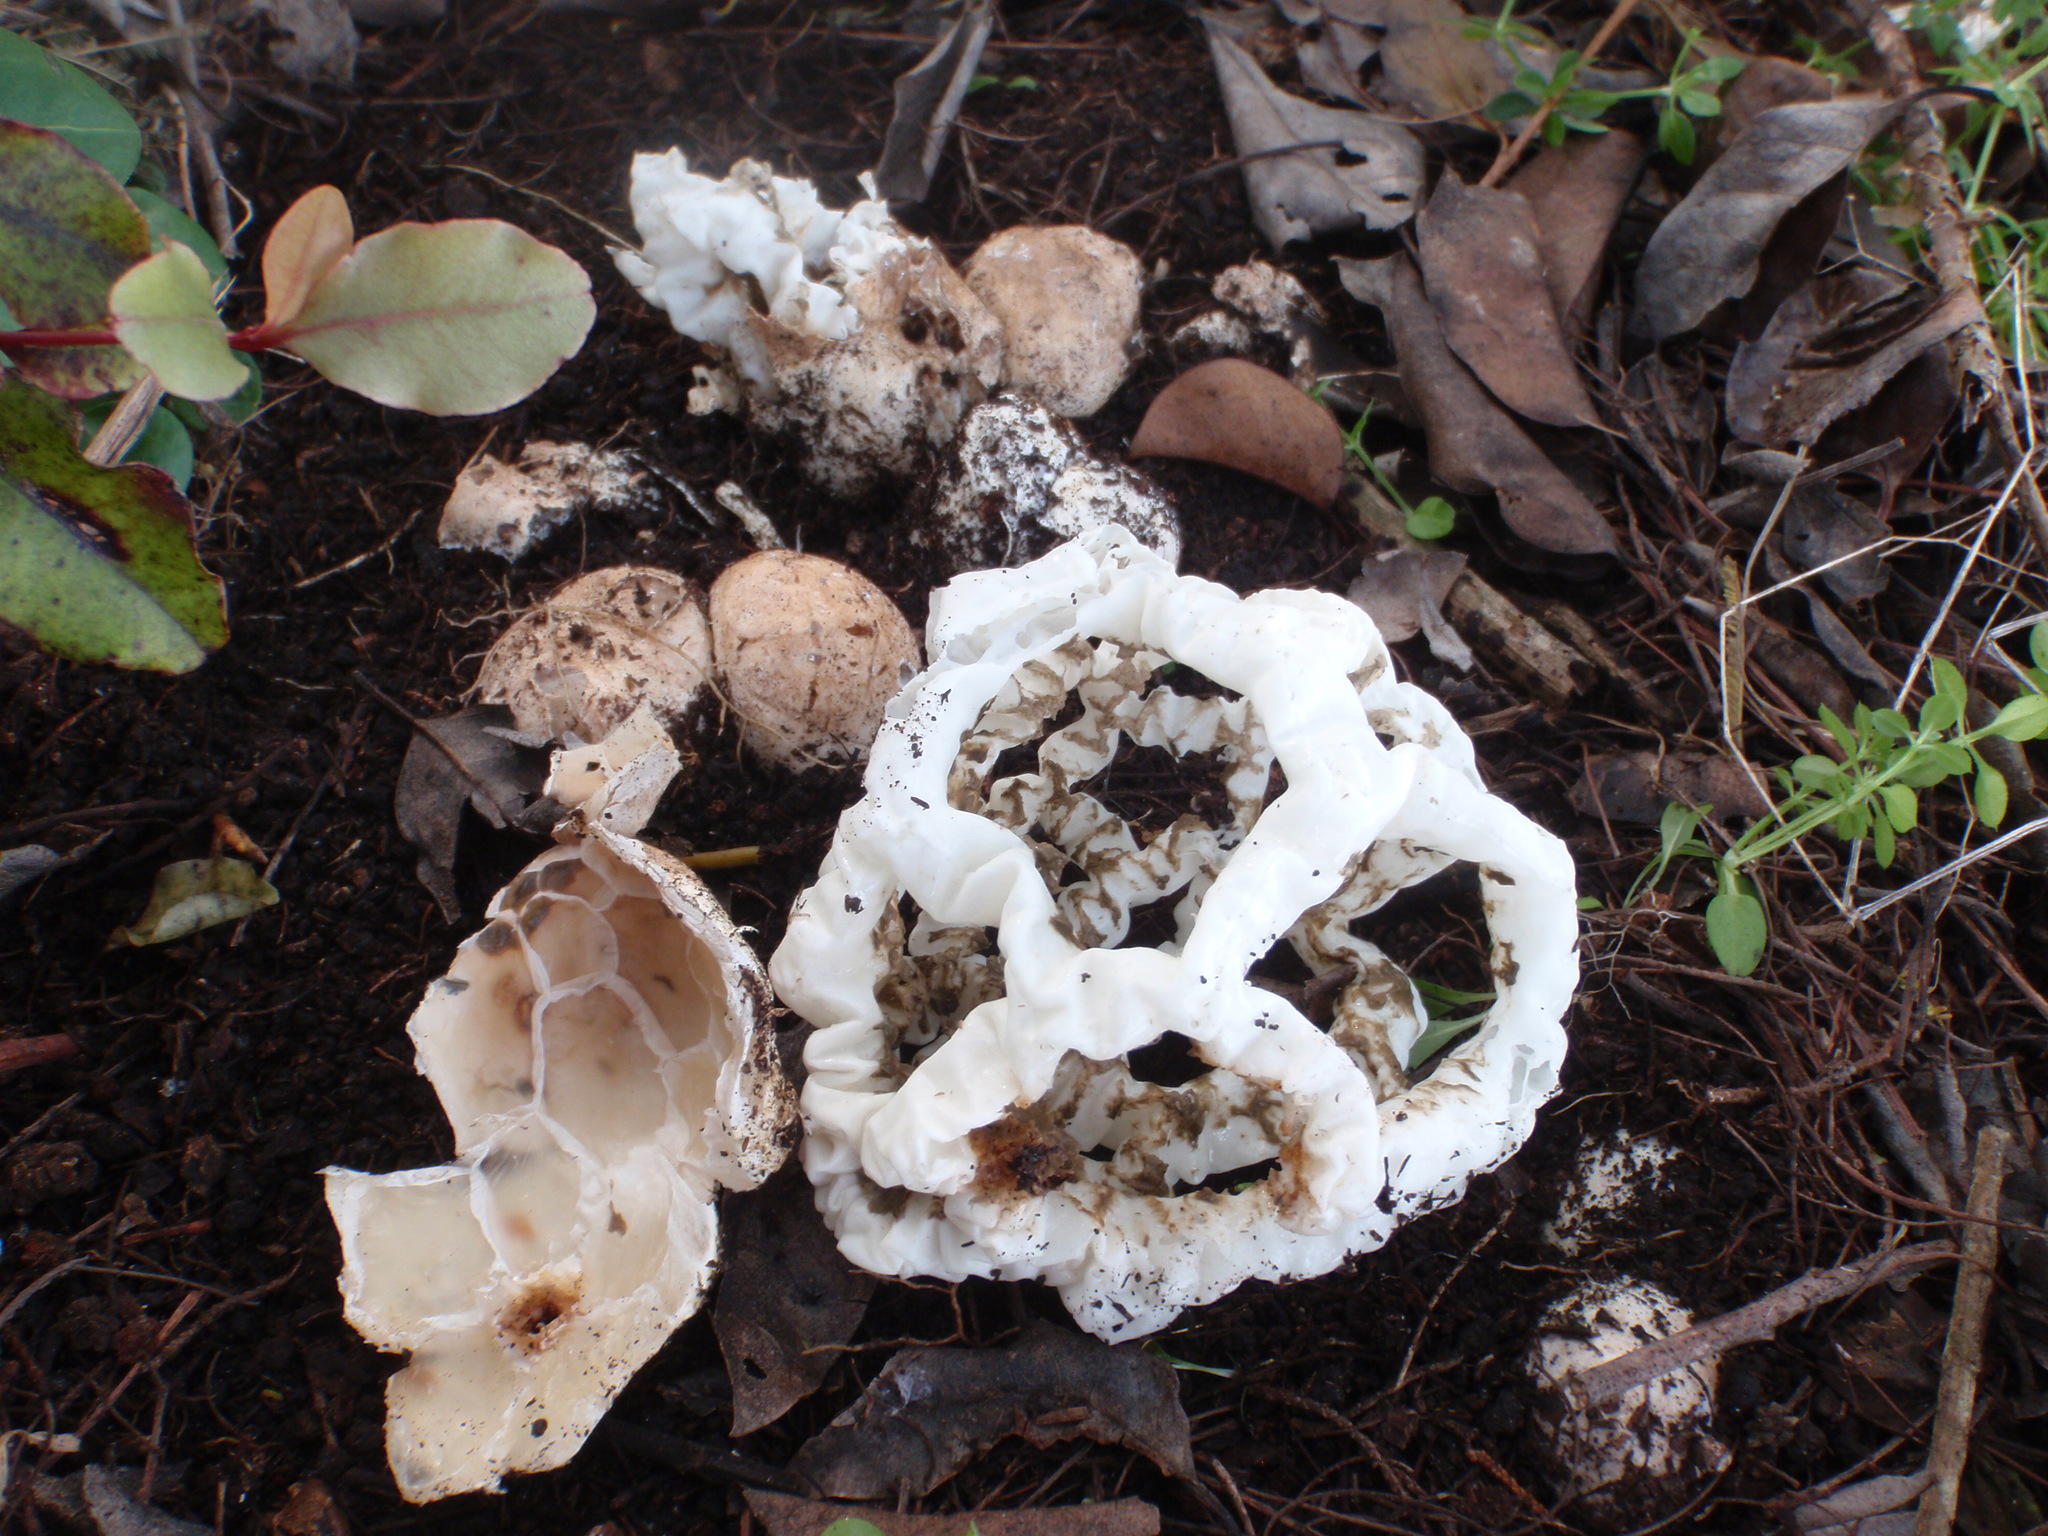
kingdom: Fungi
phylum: Basidiomycota
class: Agaricomycetes
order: Phallales
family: Phallaceae
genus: Ileodictyon
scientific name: Ileodictyon cibarium
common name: Basket fungus
